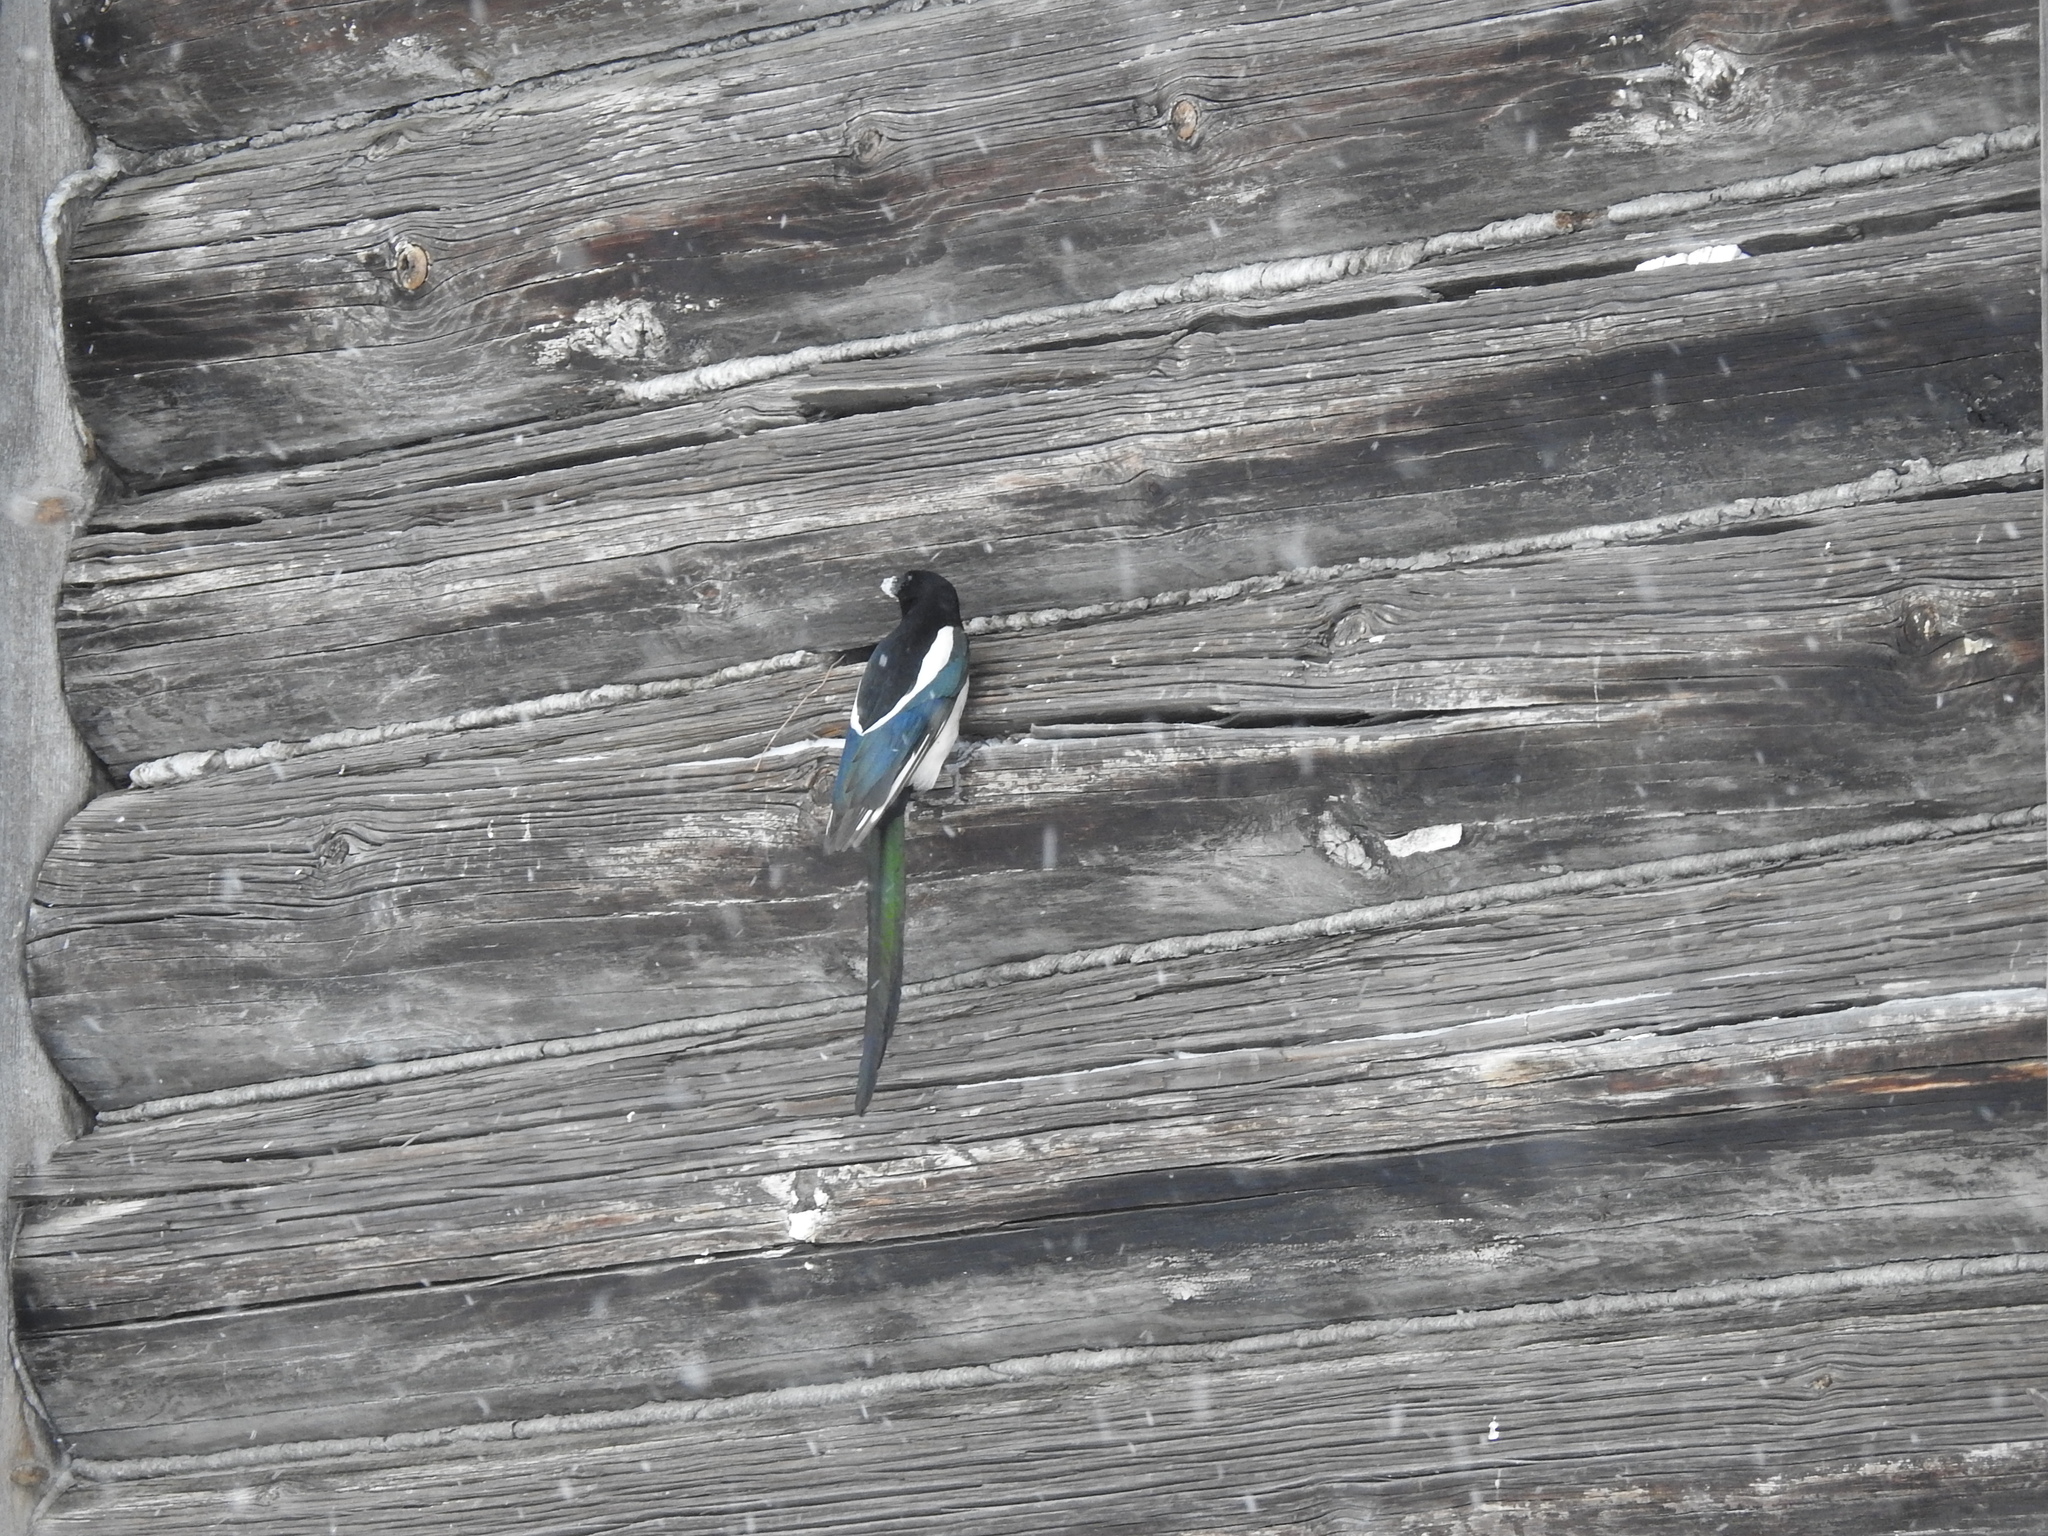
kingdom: Animalia
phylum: Chordata
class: Aves
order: Passeriformes
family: Corvidae
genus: Pica
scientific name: Pica pica
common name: Eurasian magpie
